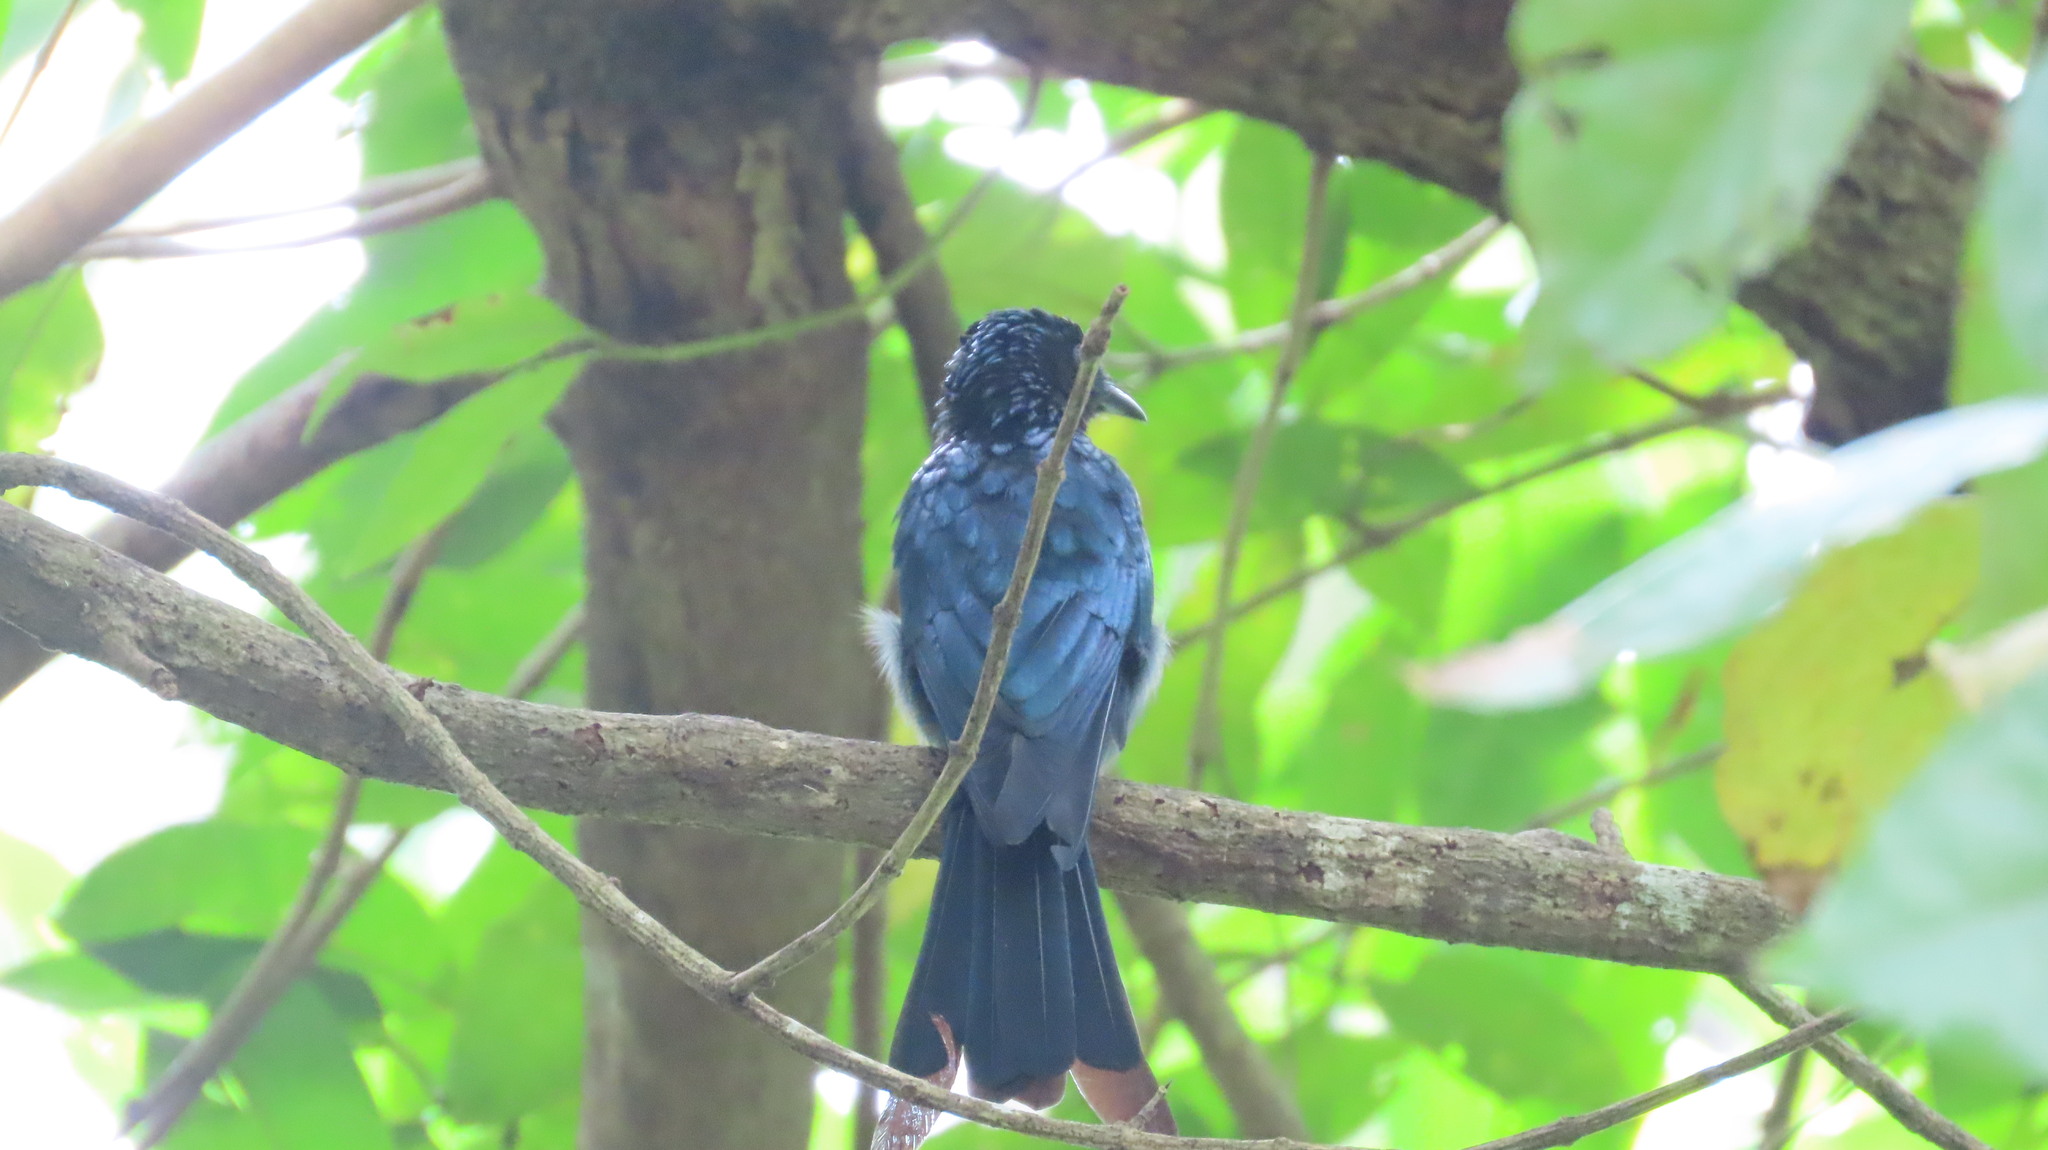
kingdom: Animalia
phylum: Chordata
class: Aves
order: Passeriformes
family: Dicruridae
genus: Dicrurus
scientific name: Dicrurus aeneus
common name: Bronzed drongo
